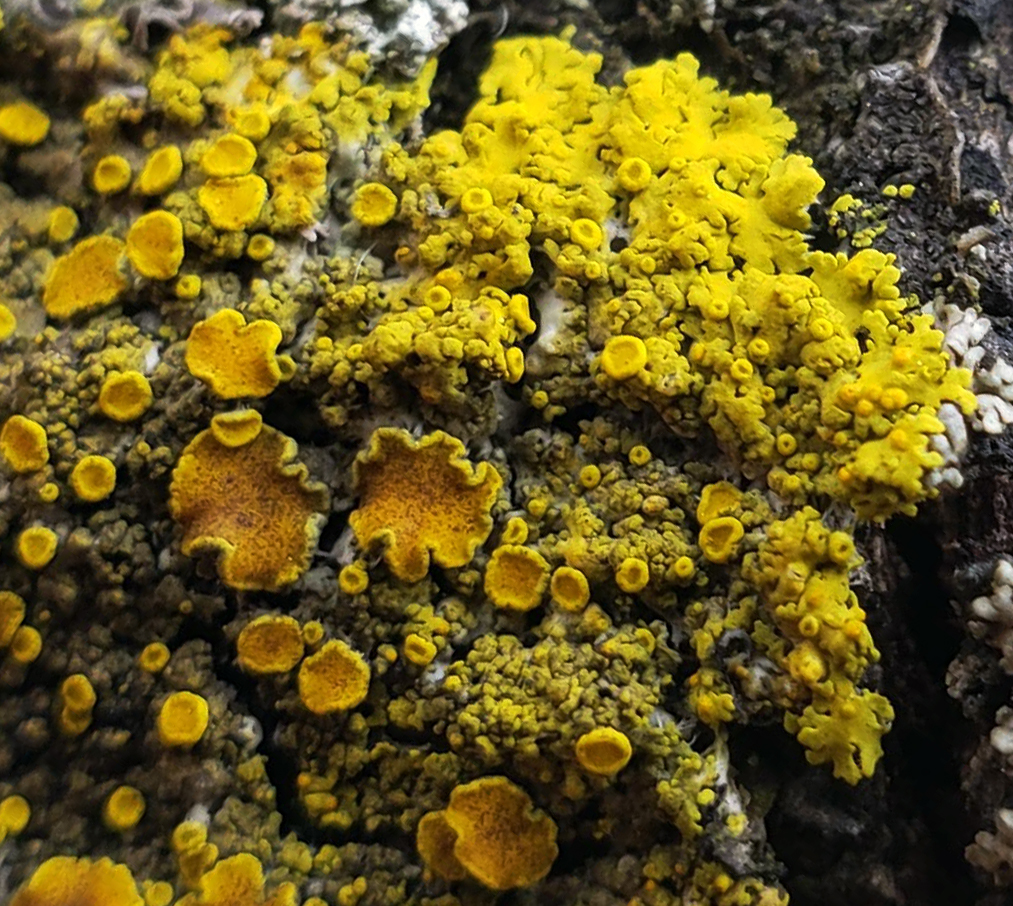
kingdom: Fungi
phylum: Ascomycota
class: Candelariomycetes
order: Candelariales
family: Candelariaceae
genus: Candelaria
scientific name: Candelaria fibrosa
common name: Fringed candleflame lichen
